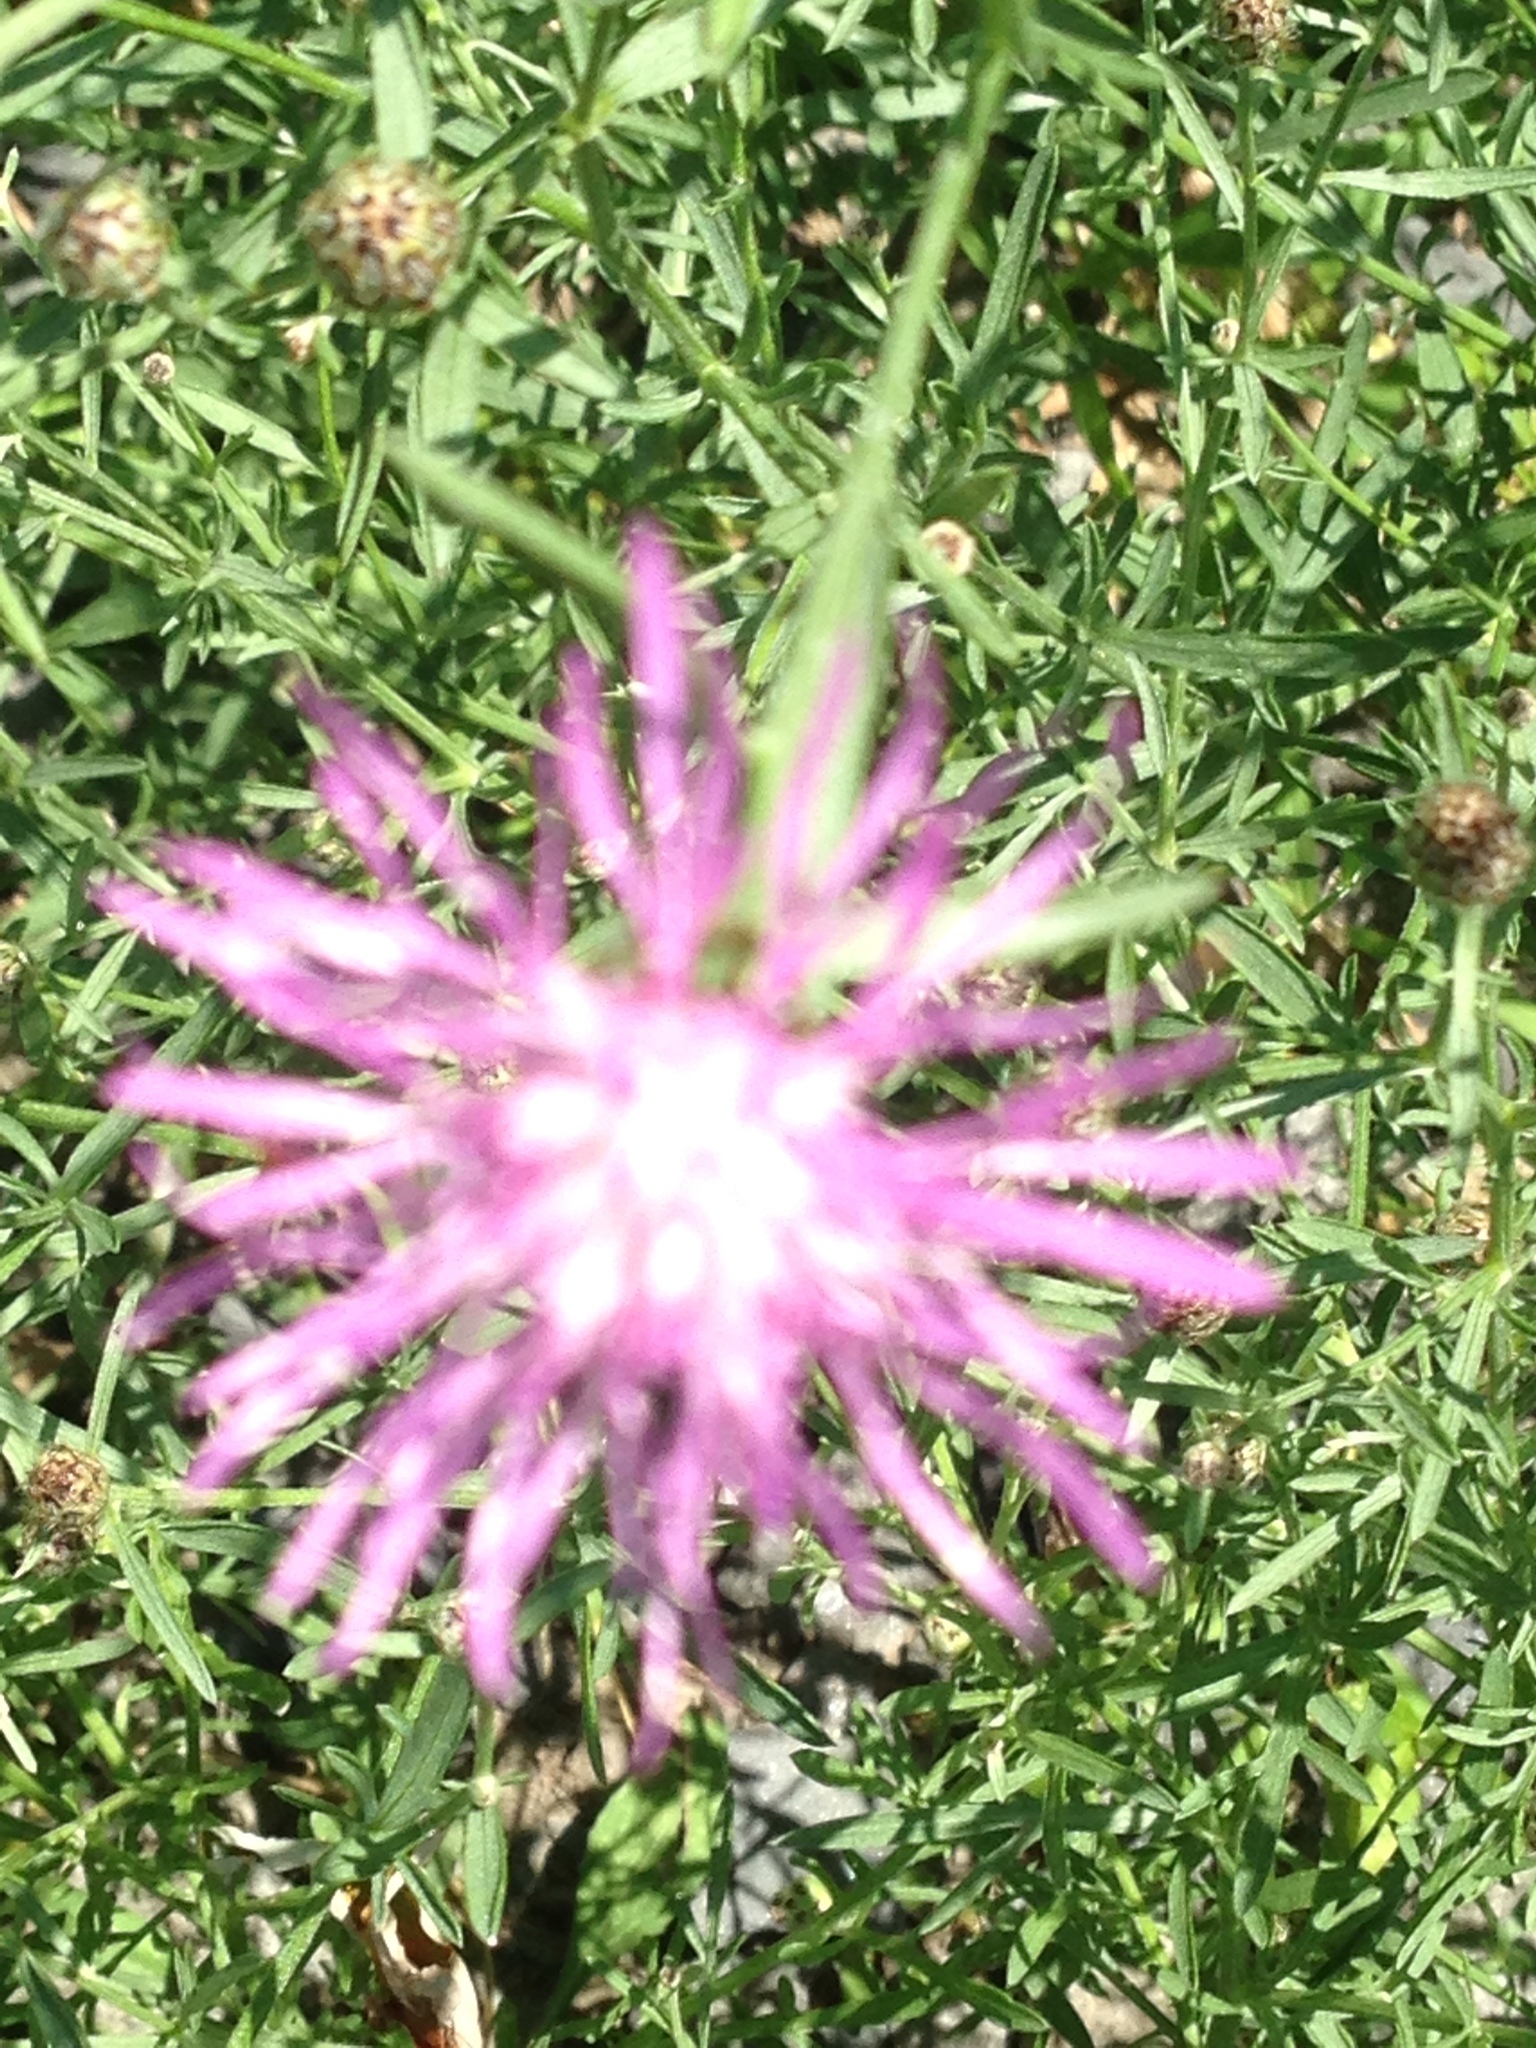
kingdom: Plantae
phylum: Tracheophyta
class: Magnoliopsida
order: Asterales
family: Asteraceae
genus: Centaurea
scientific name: Centaurea stoebe
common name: Spotted knapweed
